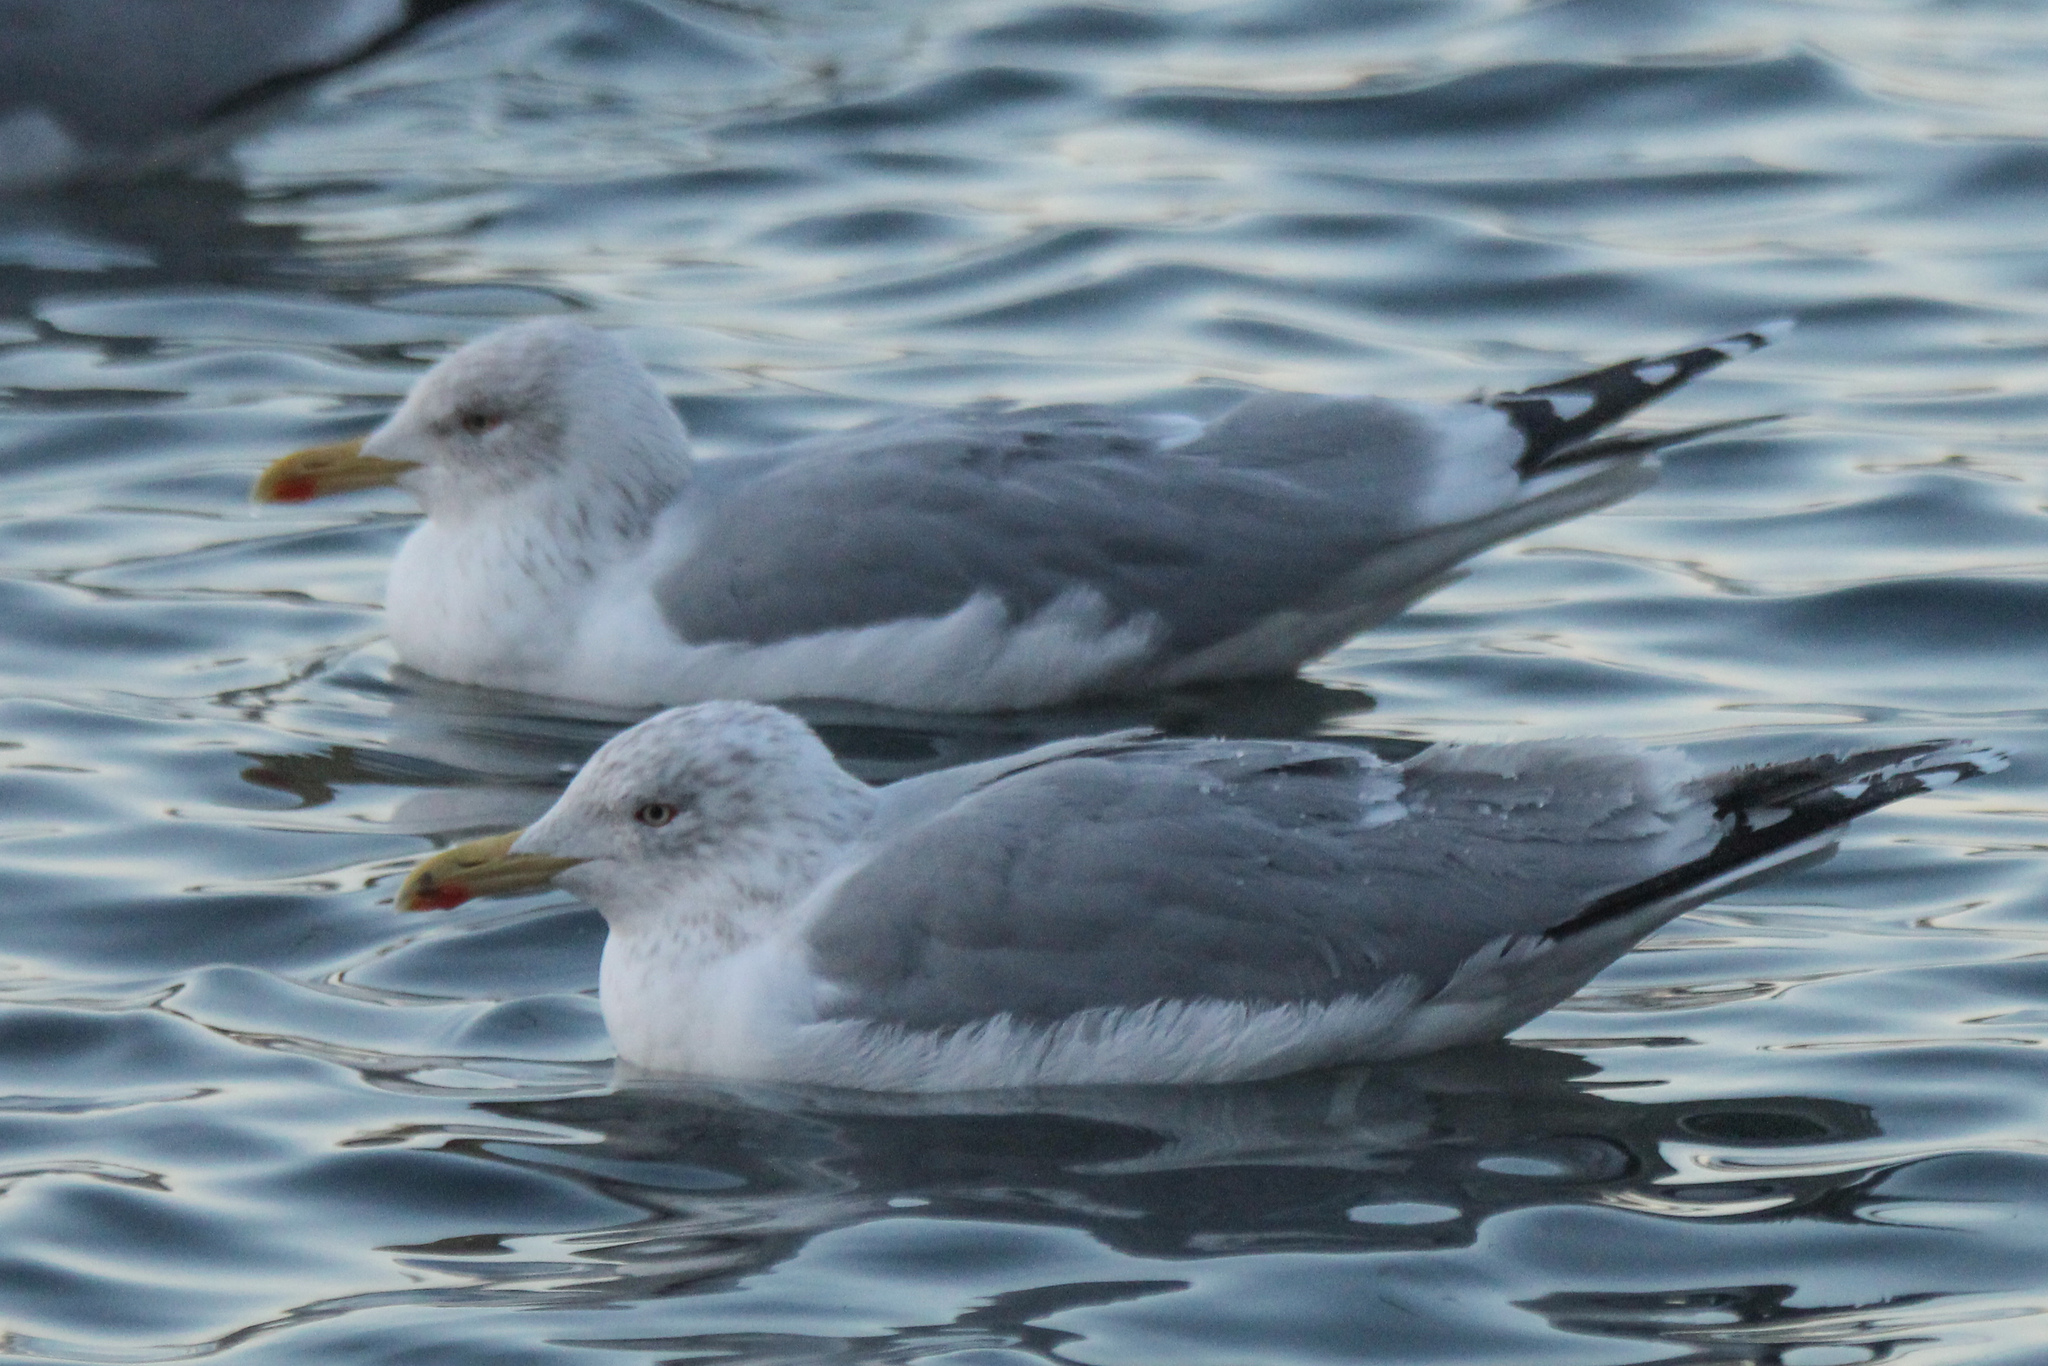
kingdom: Animalia
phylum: Chordata
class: Aves
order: Charadriiformes
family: Laridae
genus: Larus
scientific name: Larus argentatus
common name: Herring gull
